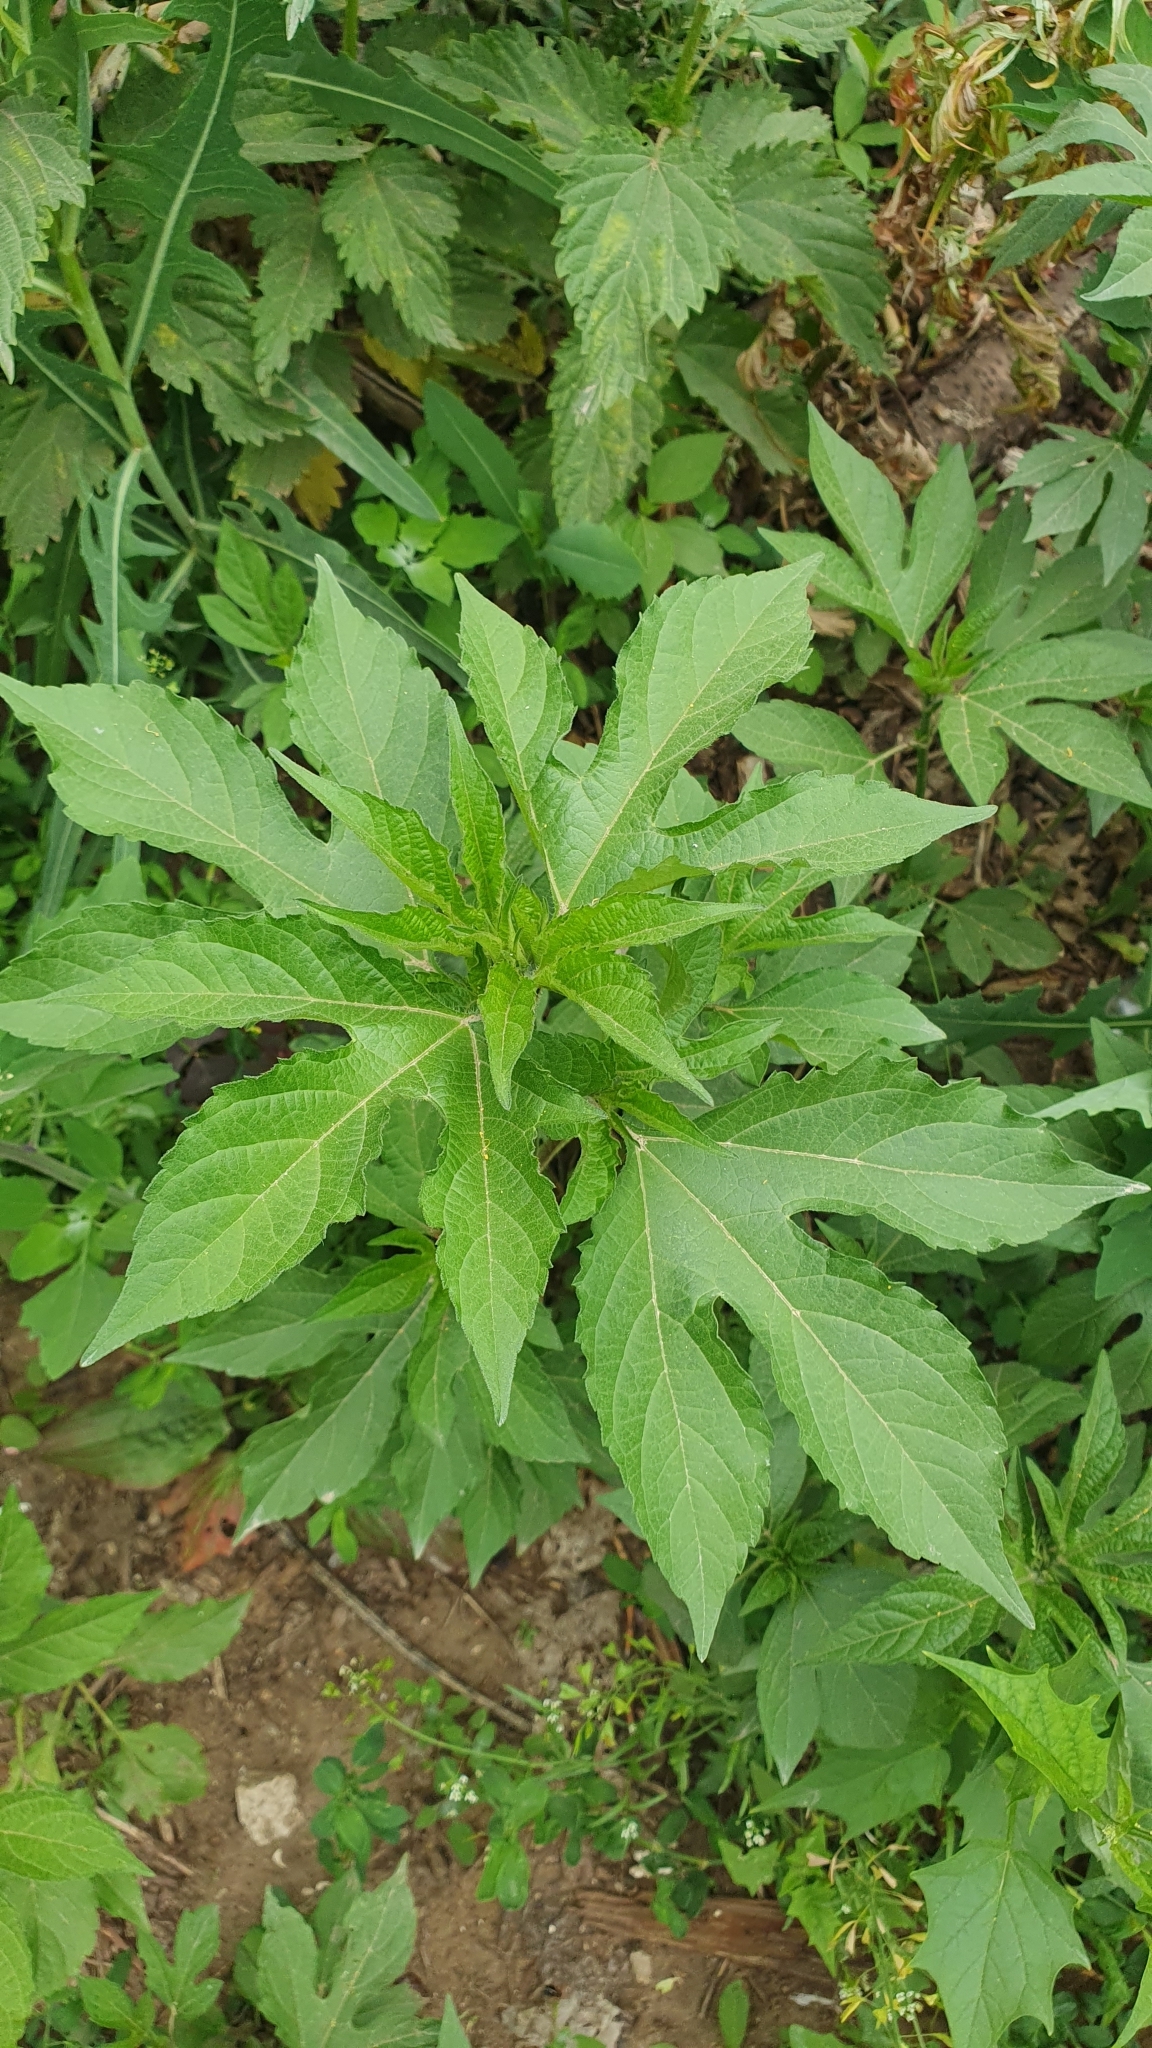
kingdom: Plantae
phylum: Tracheophyta
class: Magnoliopsida
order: Asterales
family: Asteraceae
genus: Ambrosia
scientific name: Ambrosia trifida
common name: Giant ragweed
